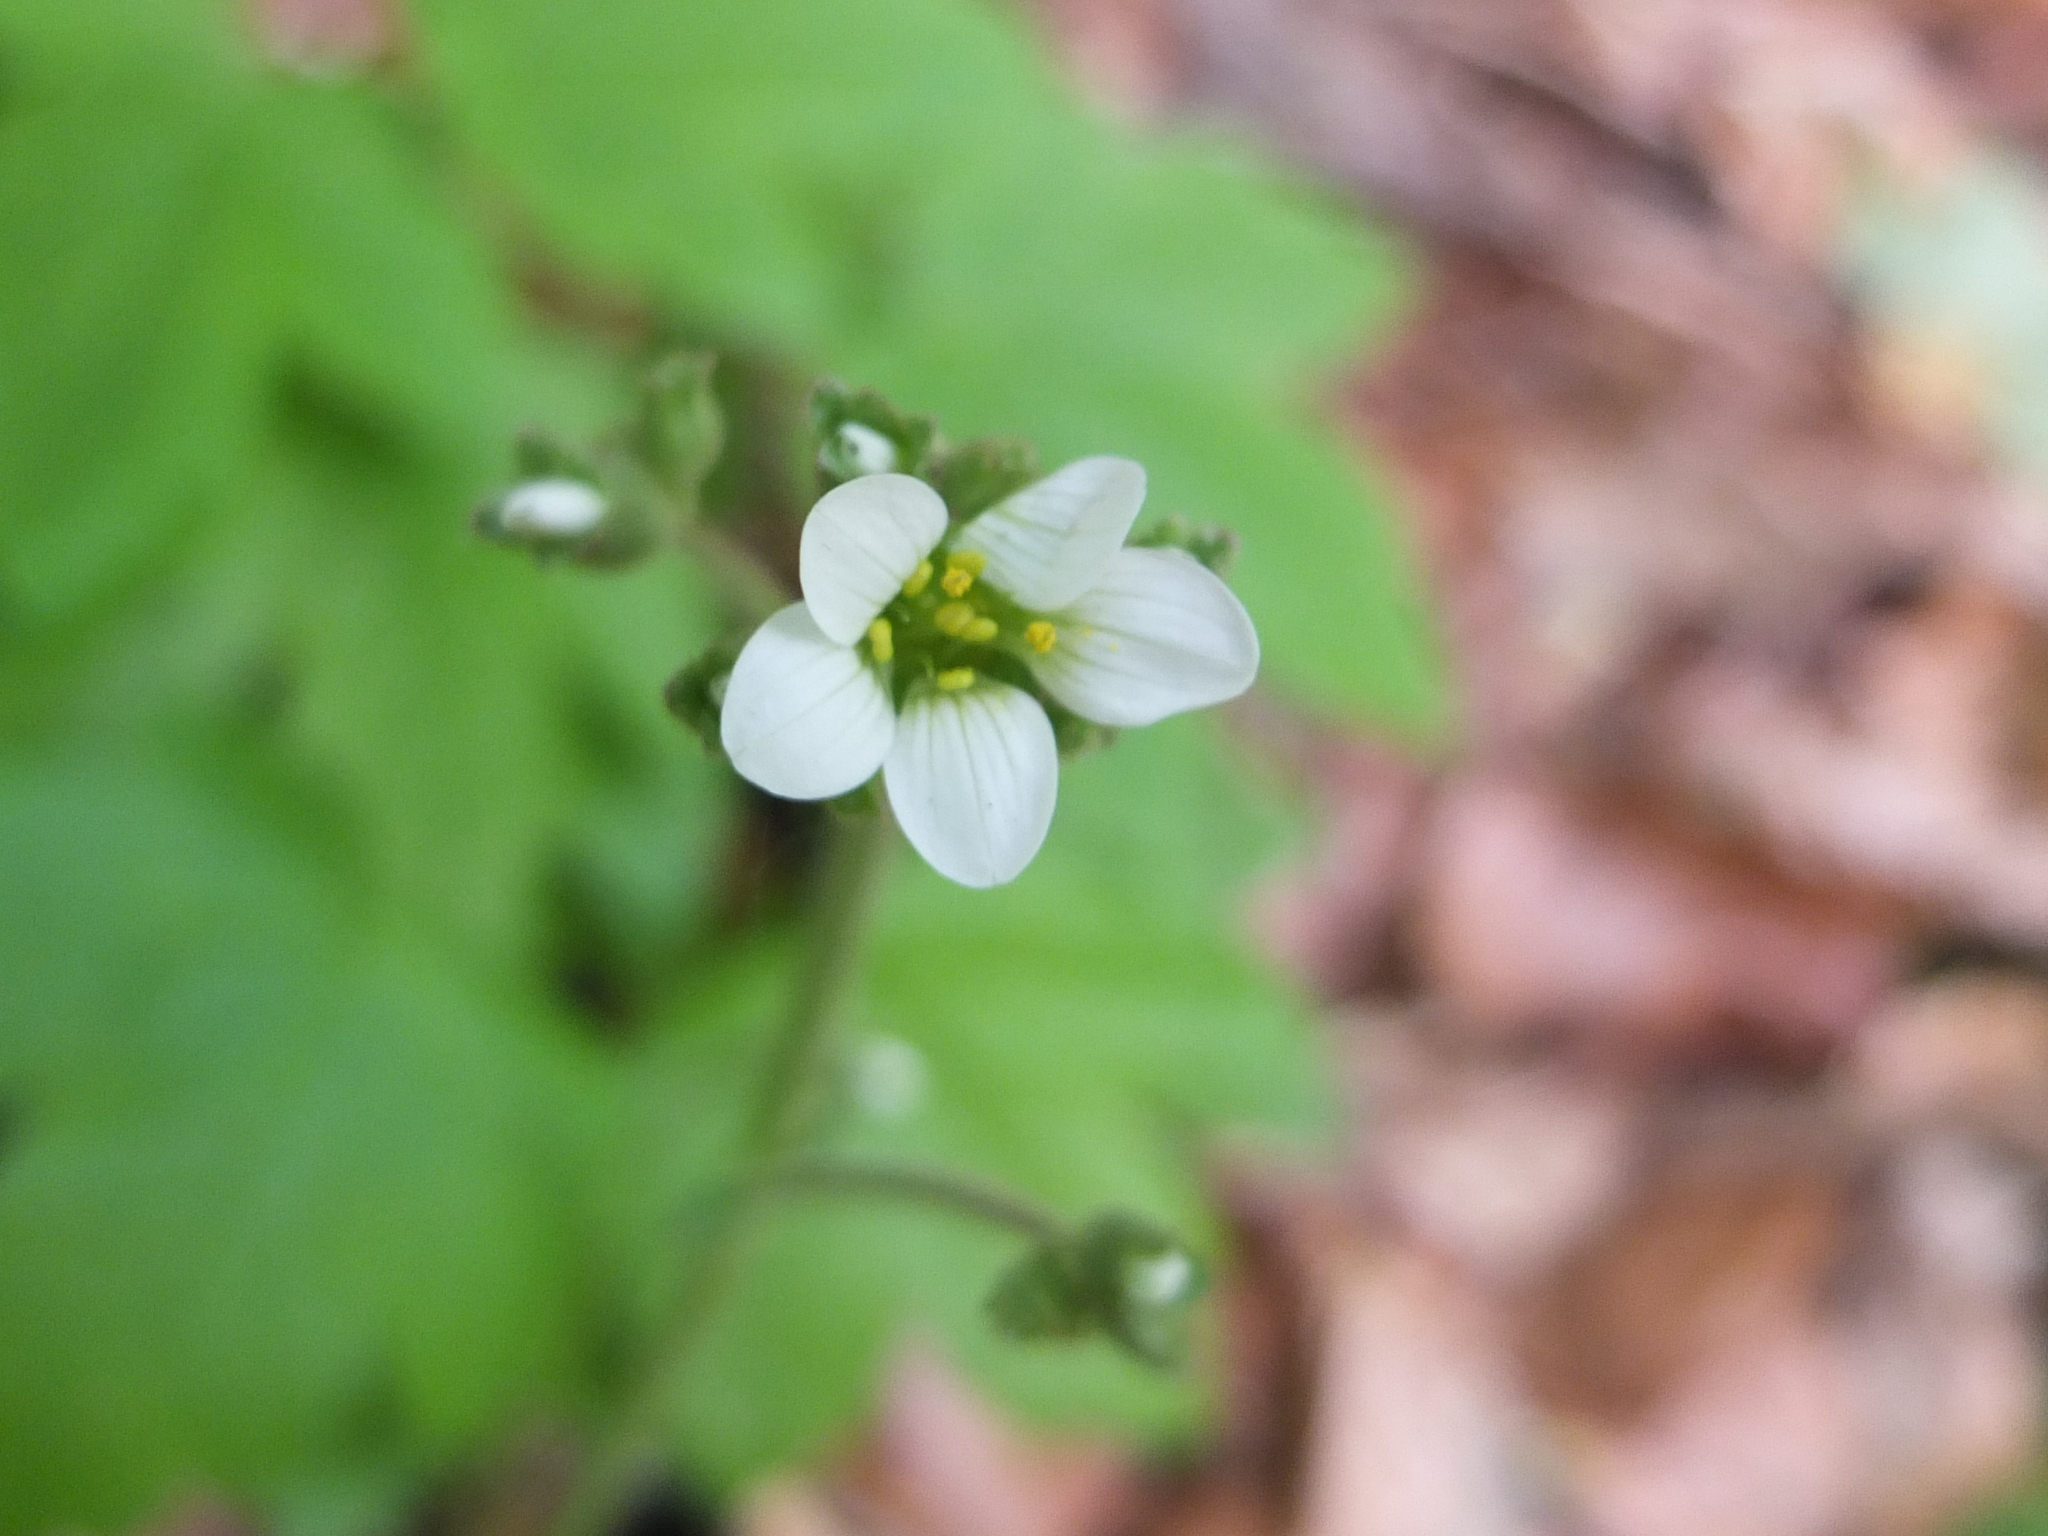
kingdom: Plantae
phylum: Tracheophyta
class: Magnoliopsida
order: Saxifragales
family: Saxifragaceae
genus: Saxifraga
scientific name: Saxifraga granulata
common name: Meadow saxifrage
